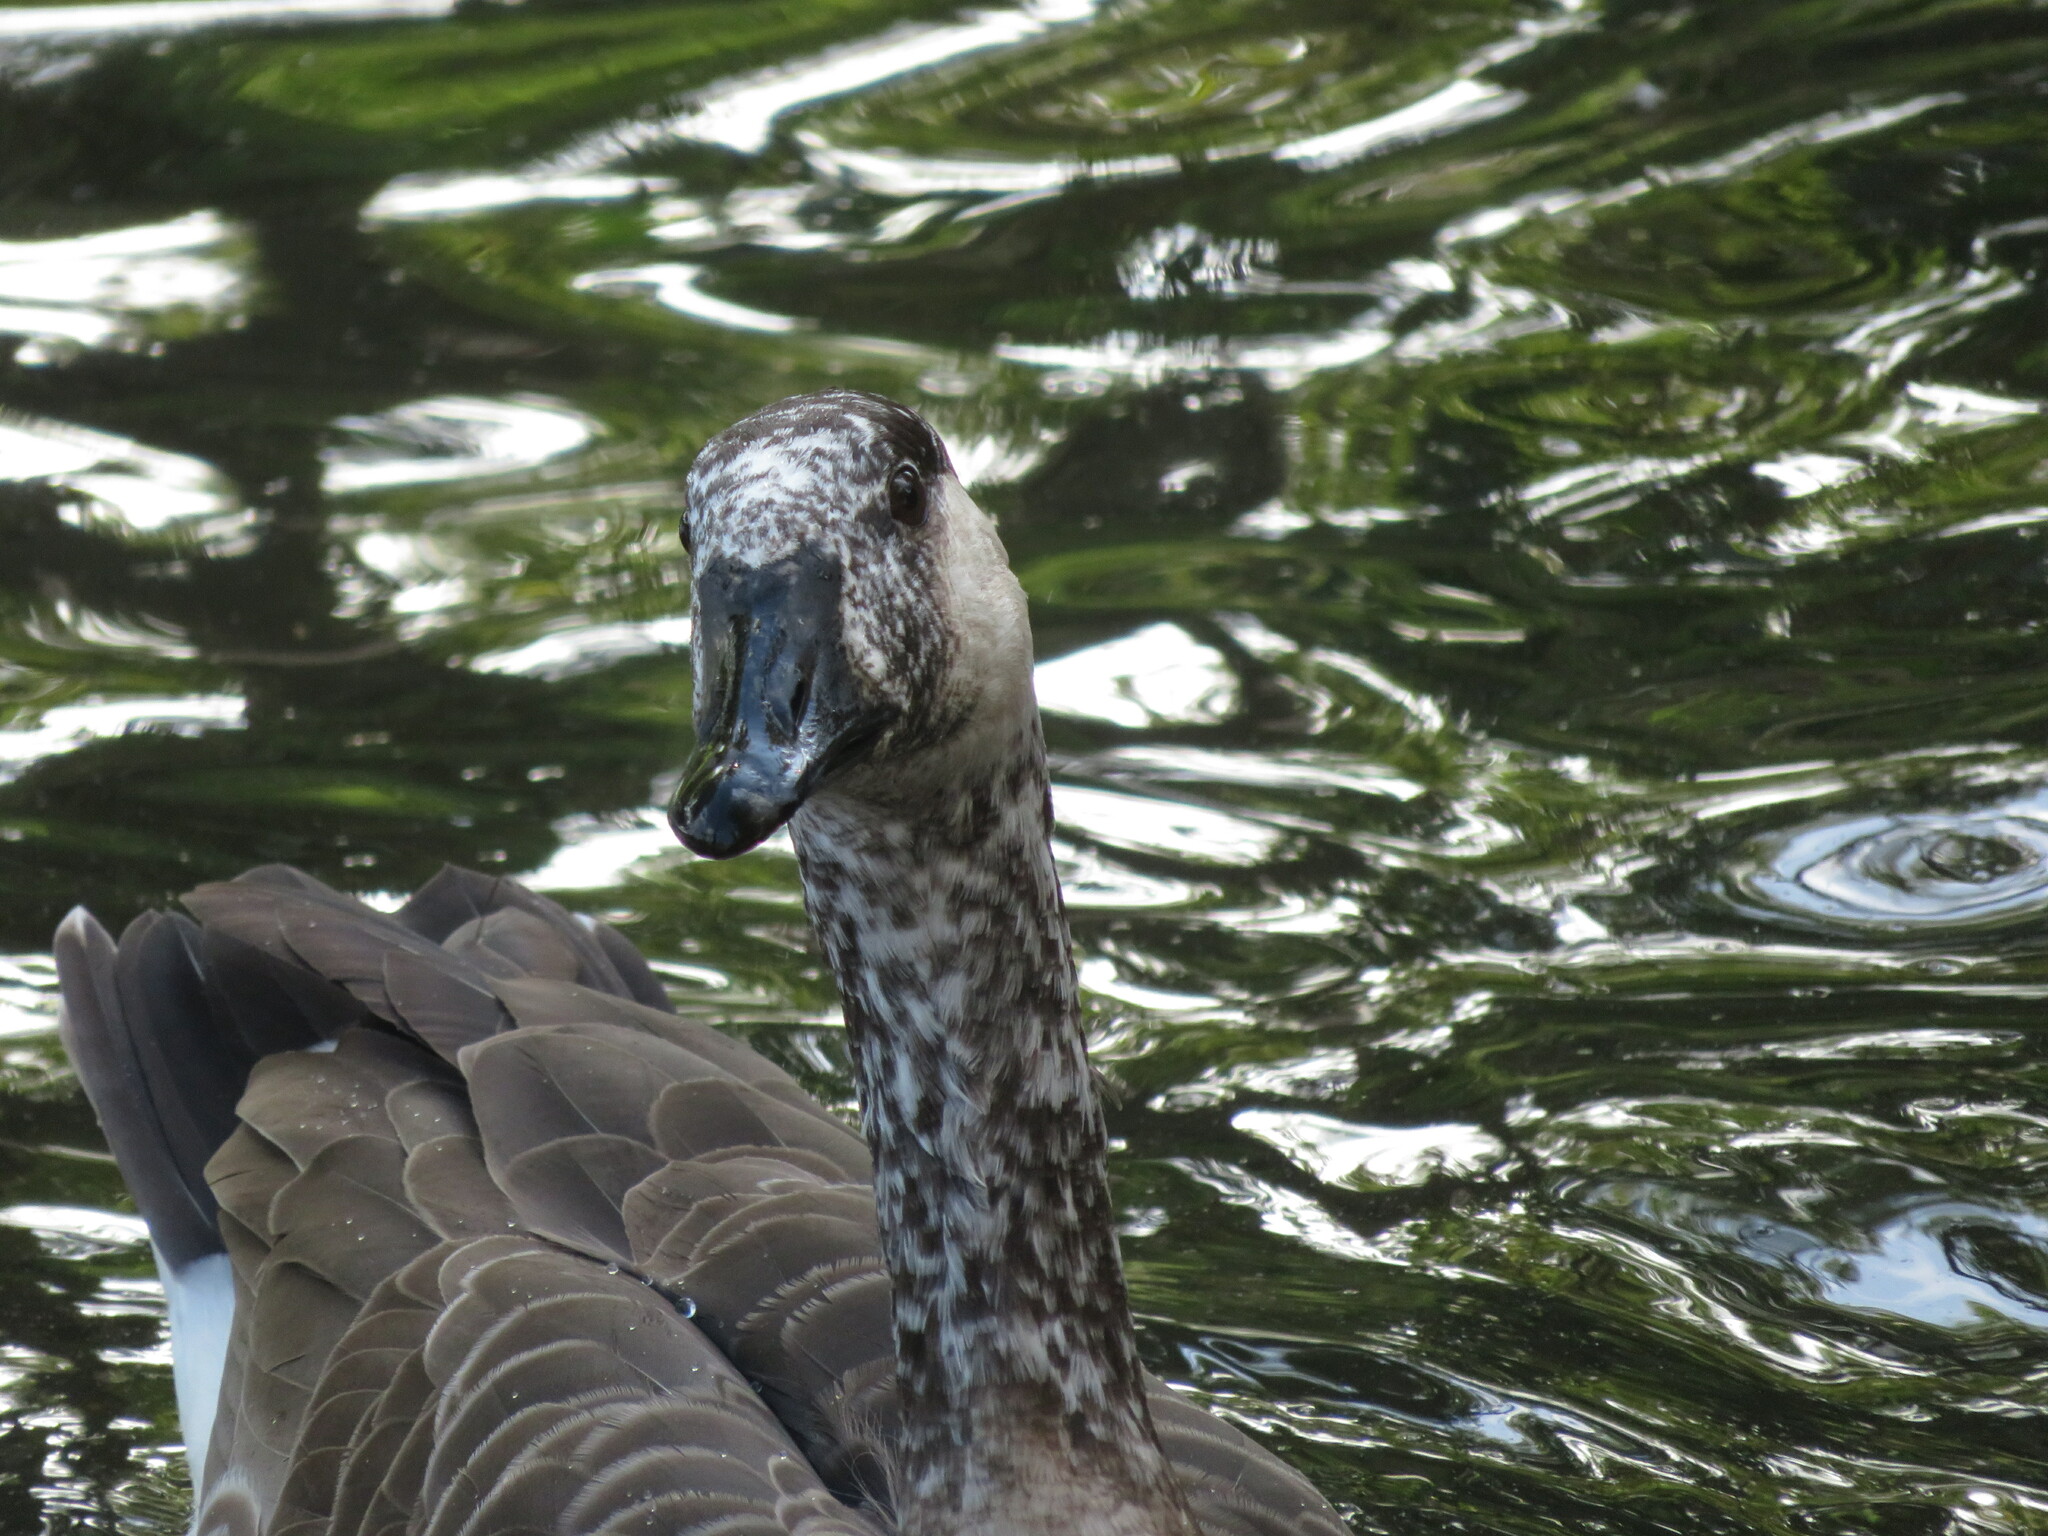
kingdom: Animalia
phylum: Chordata
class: Aves
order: Anseriformes
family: Anatidae
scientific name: Anatidae
